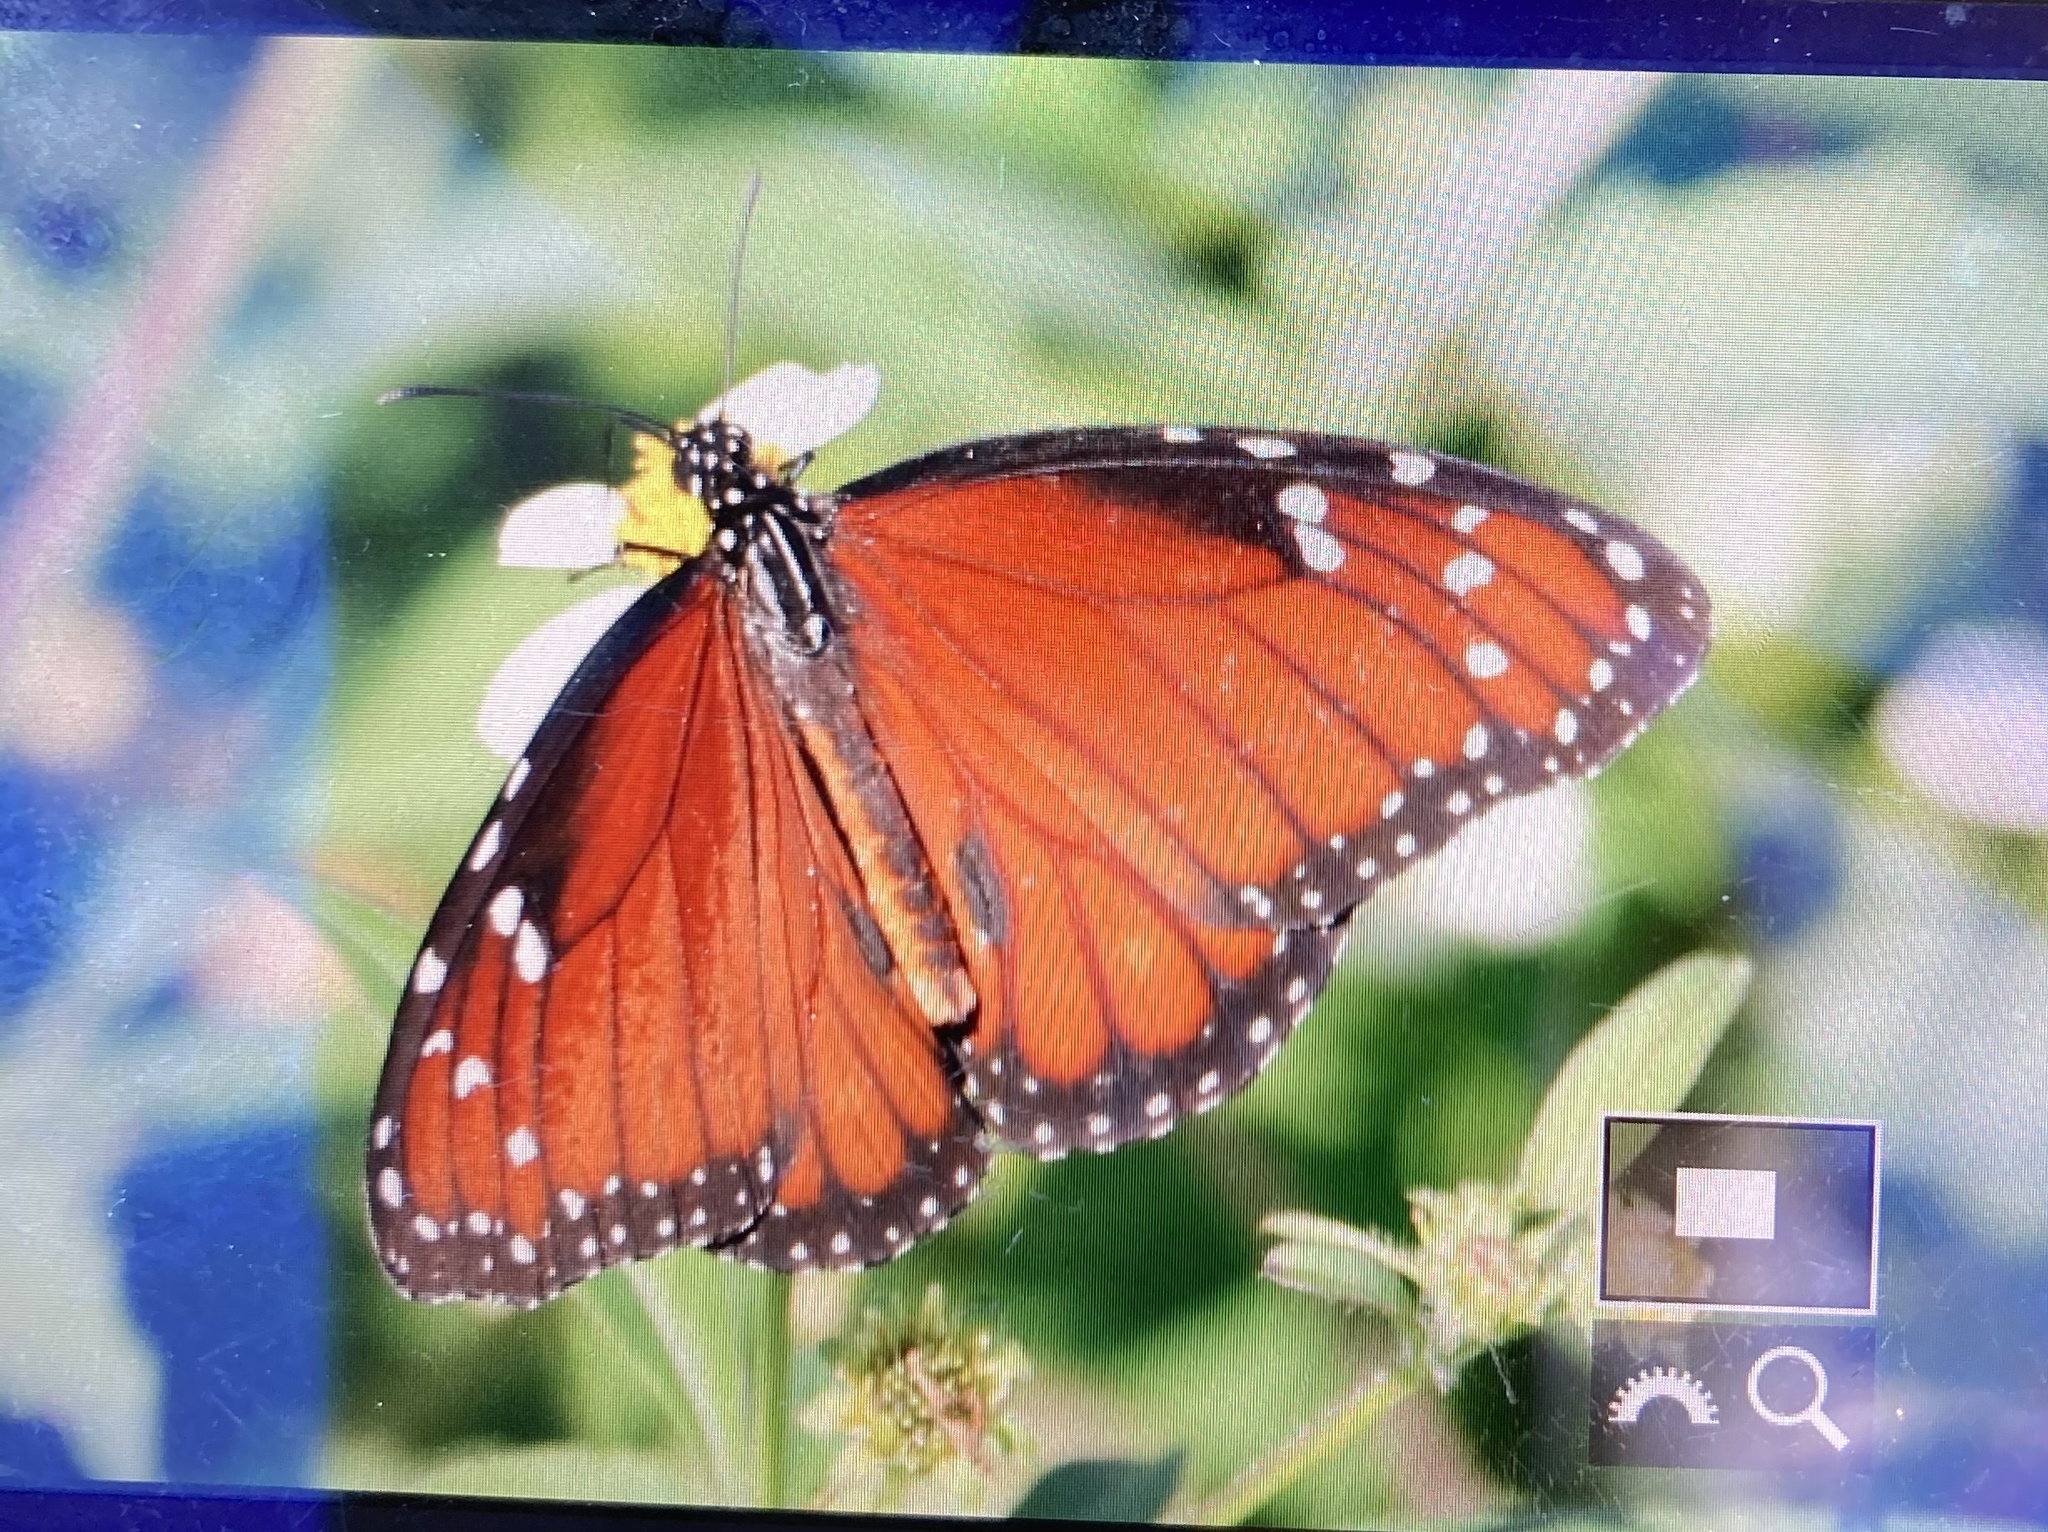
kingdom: Animalia
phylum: Arthropoda
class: Insecta
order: Lepidoptera
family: Nymphalidae
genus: Danaus
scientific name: Danaus eresimus
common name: Soldier
